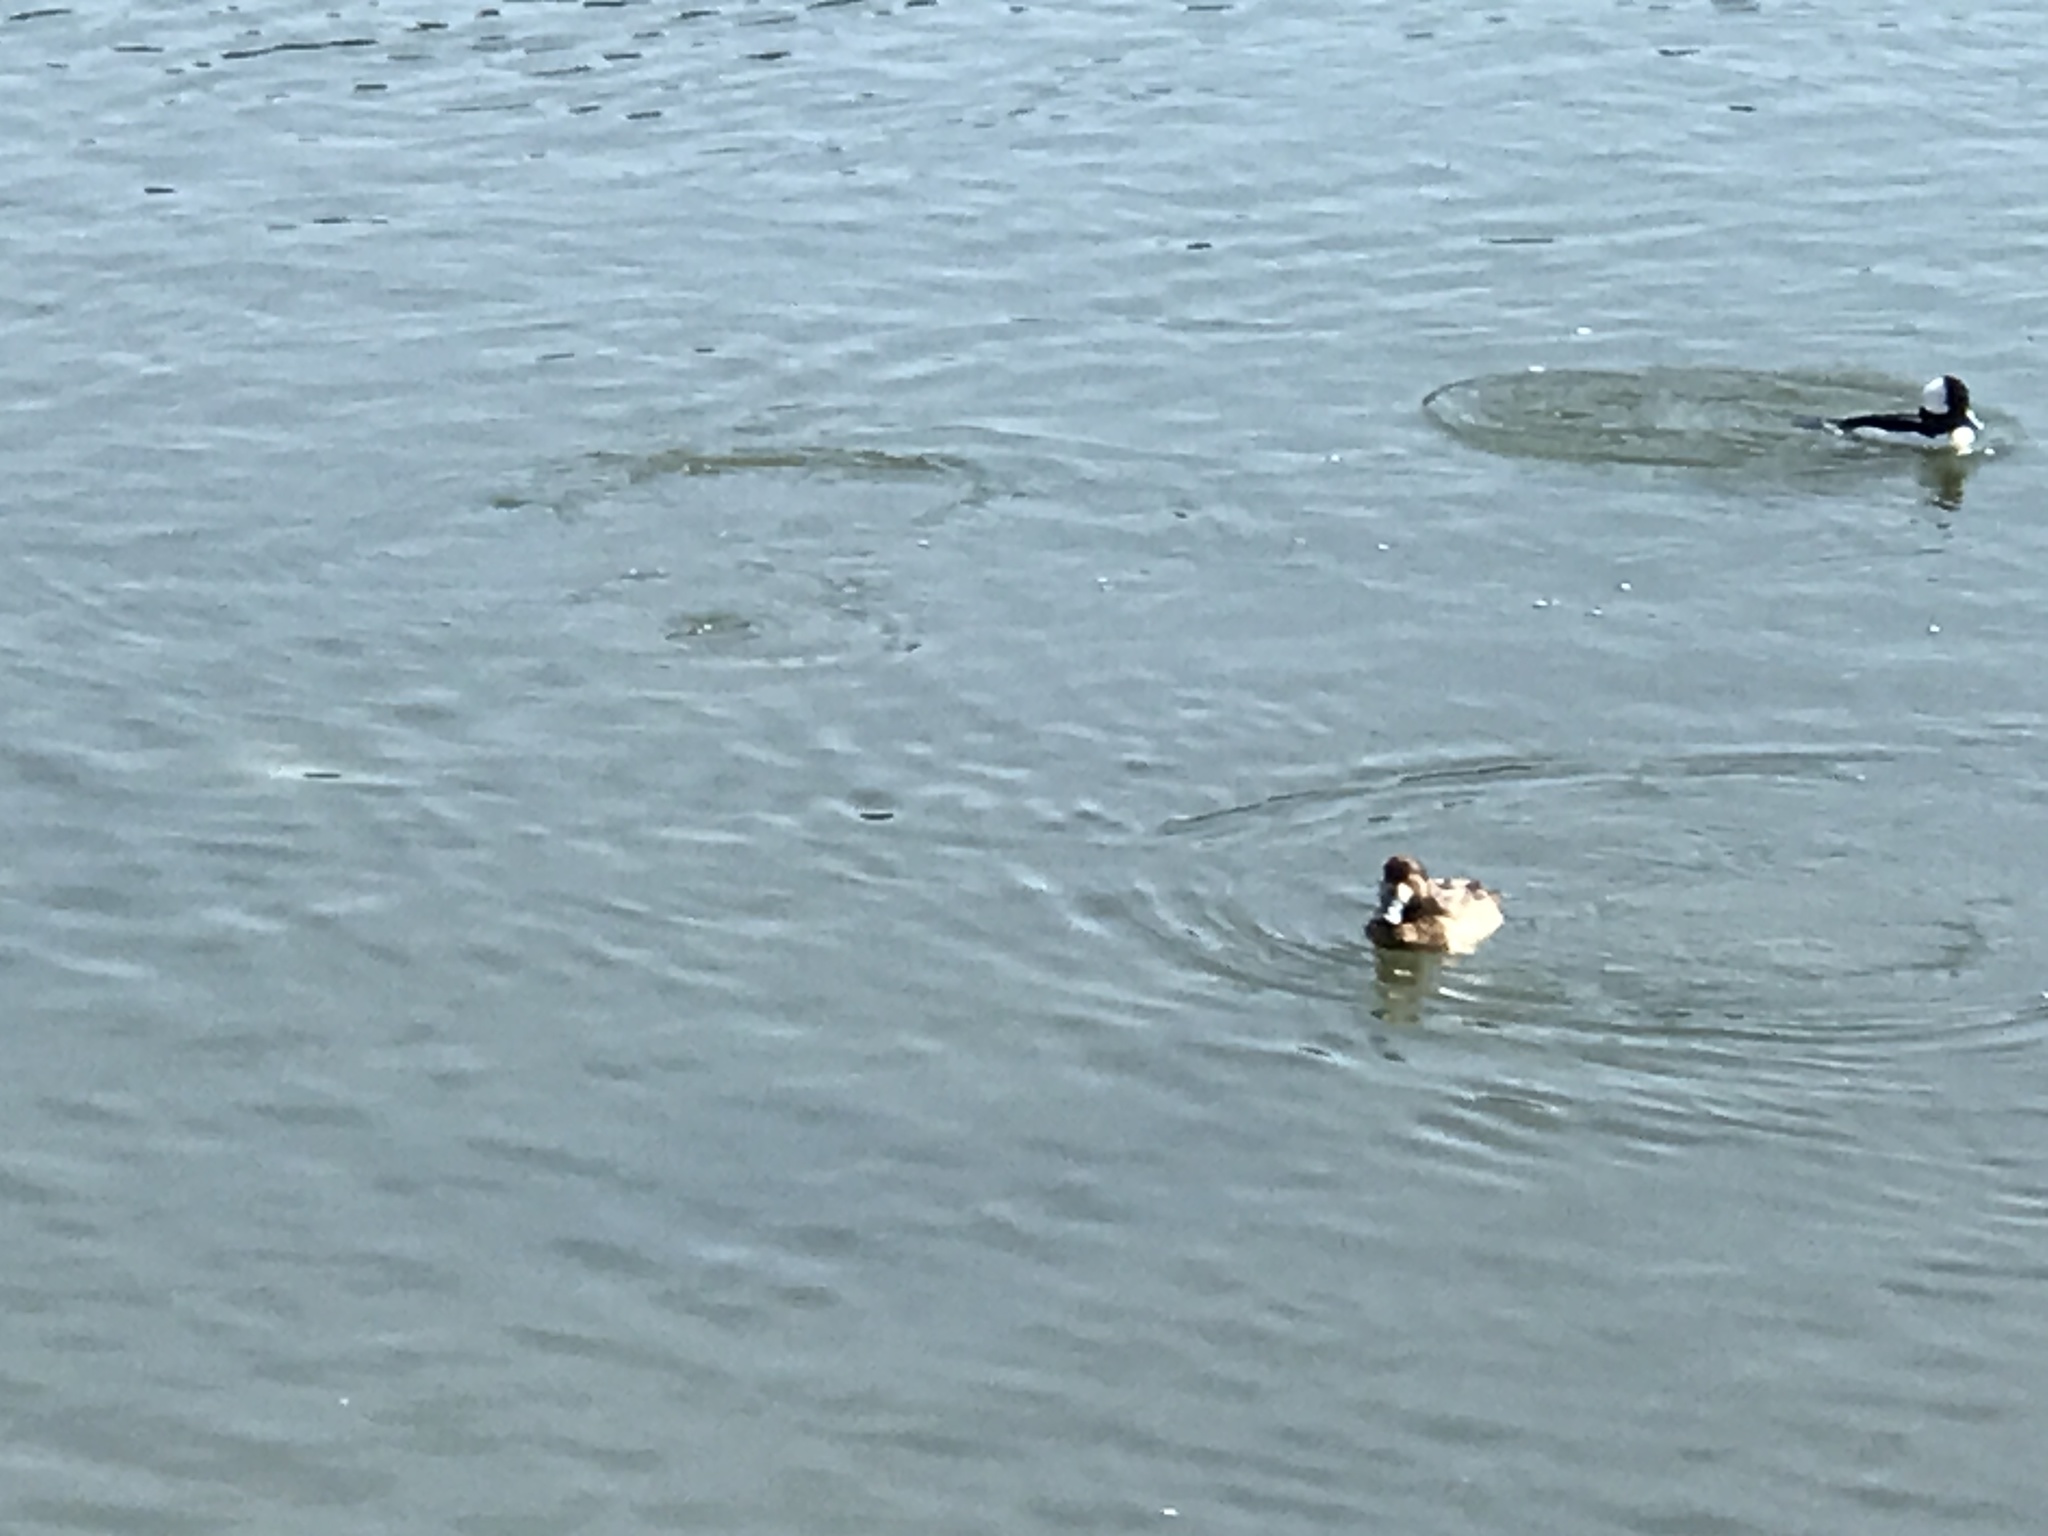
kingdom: Animalia
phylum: Chordata
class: Aves
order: Anseriformes
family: Anatidae
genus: Aythya
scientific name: Aythya marila
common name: Greater scaup
